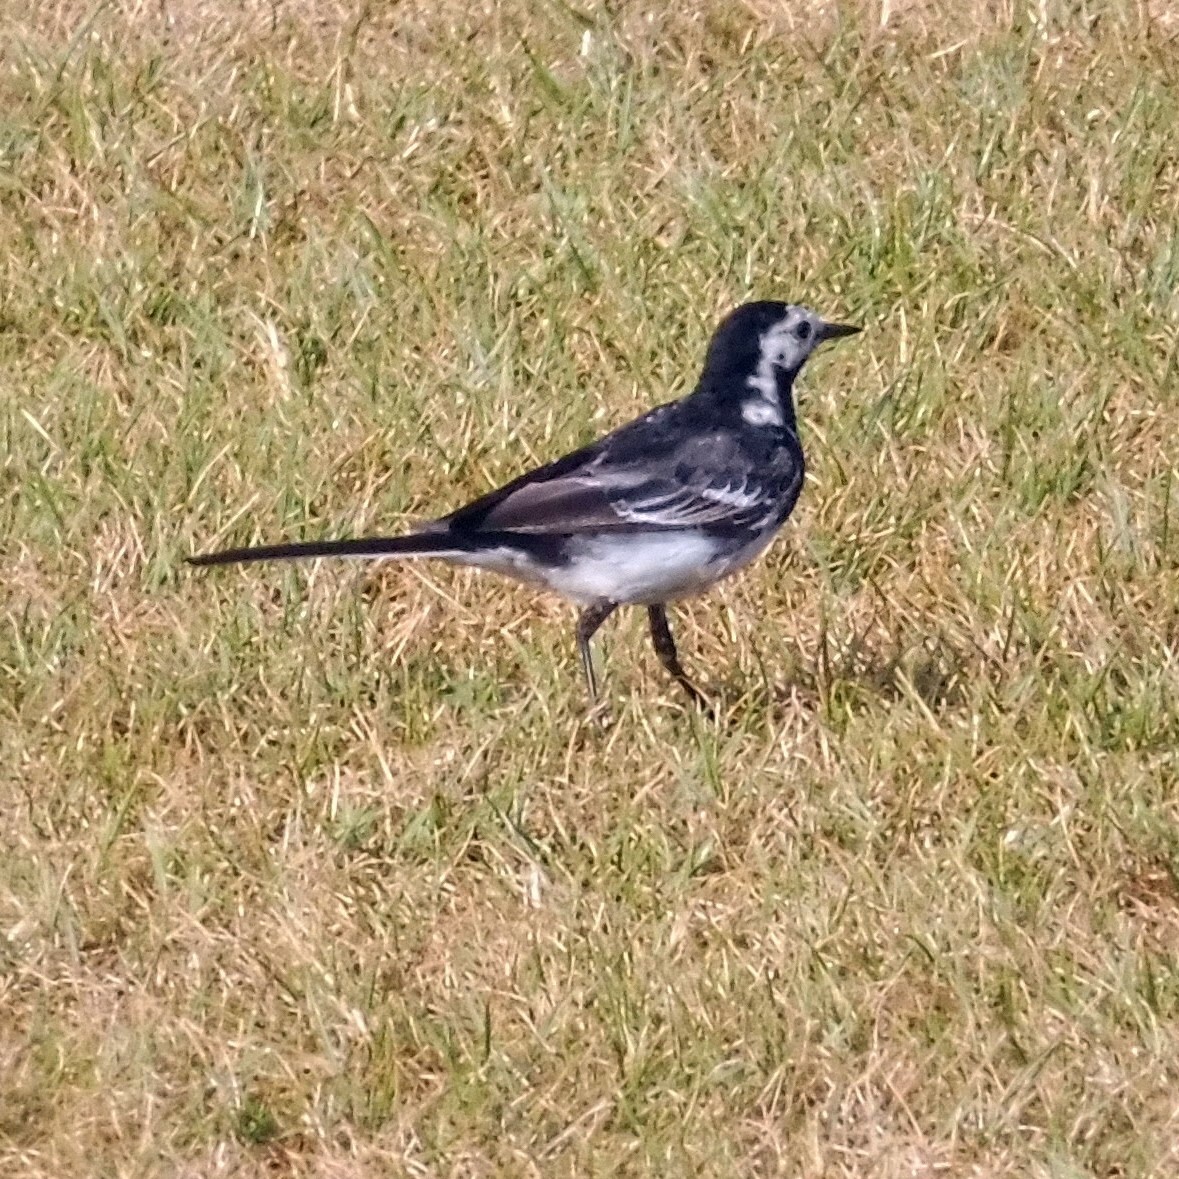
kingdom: Animalia
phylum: Chordata
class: Aves
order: Passeriformes
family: Motacillidae
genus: Motacilla
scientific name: Motacilla alba
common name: White wagtail
